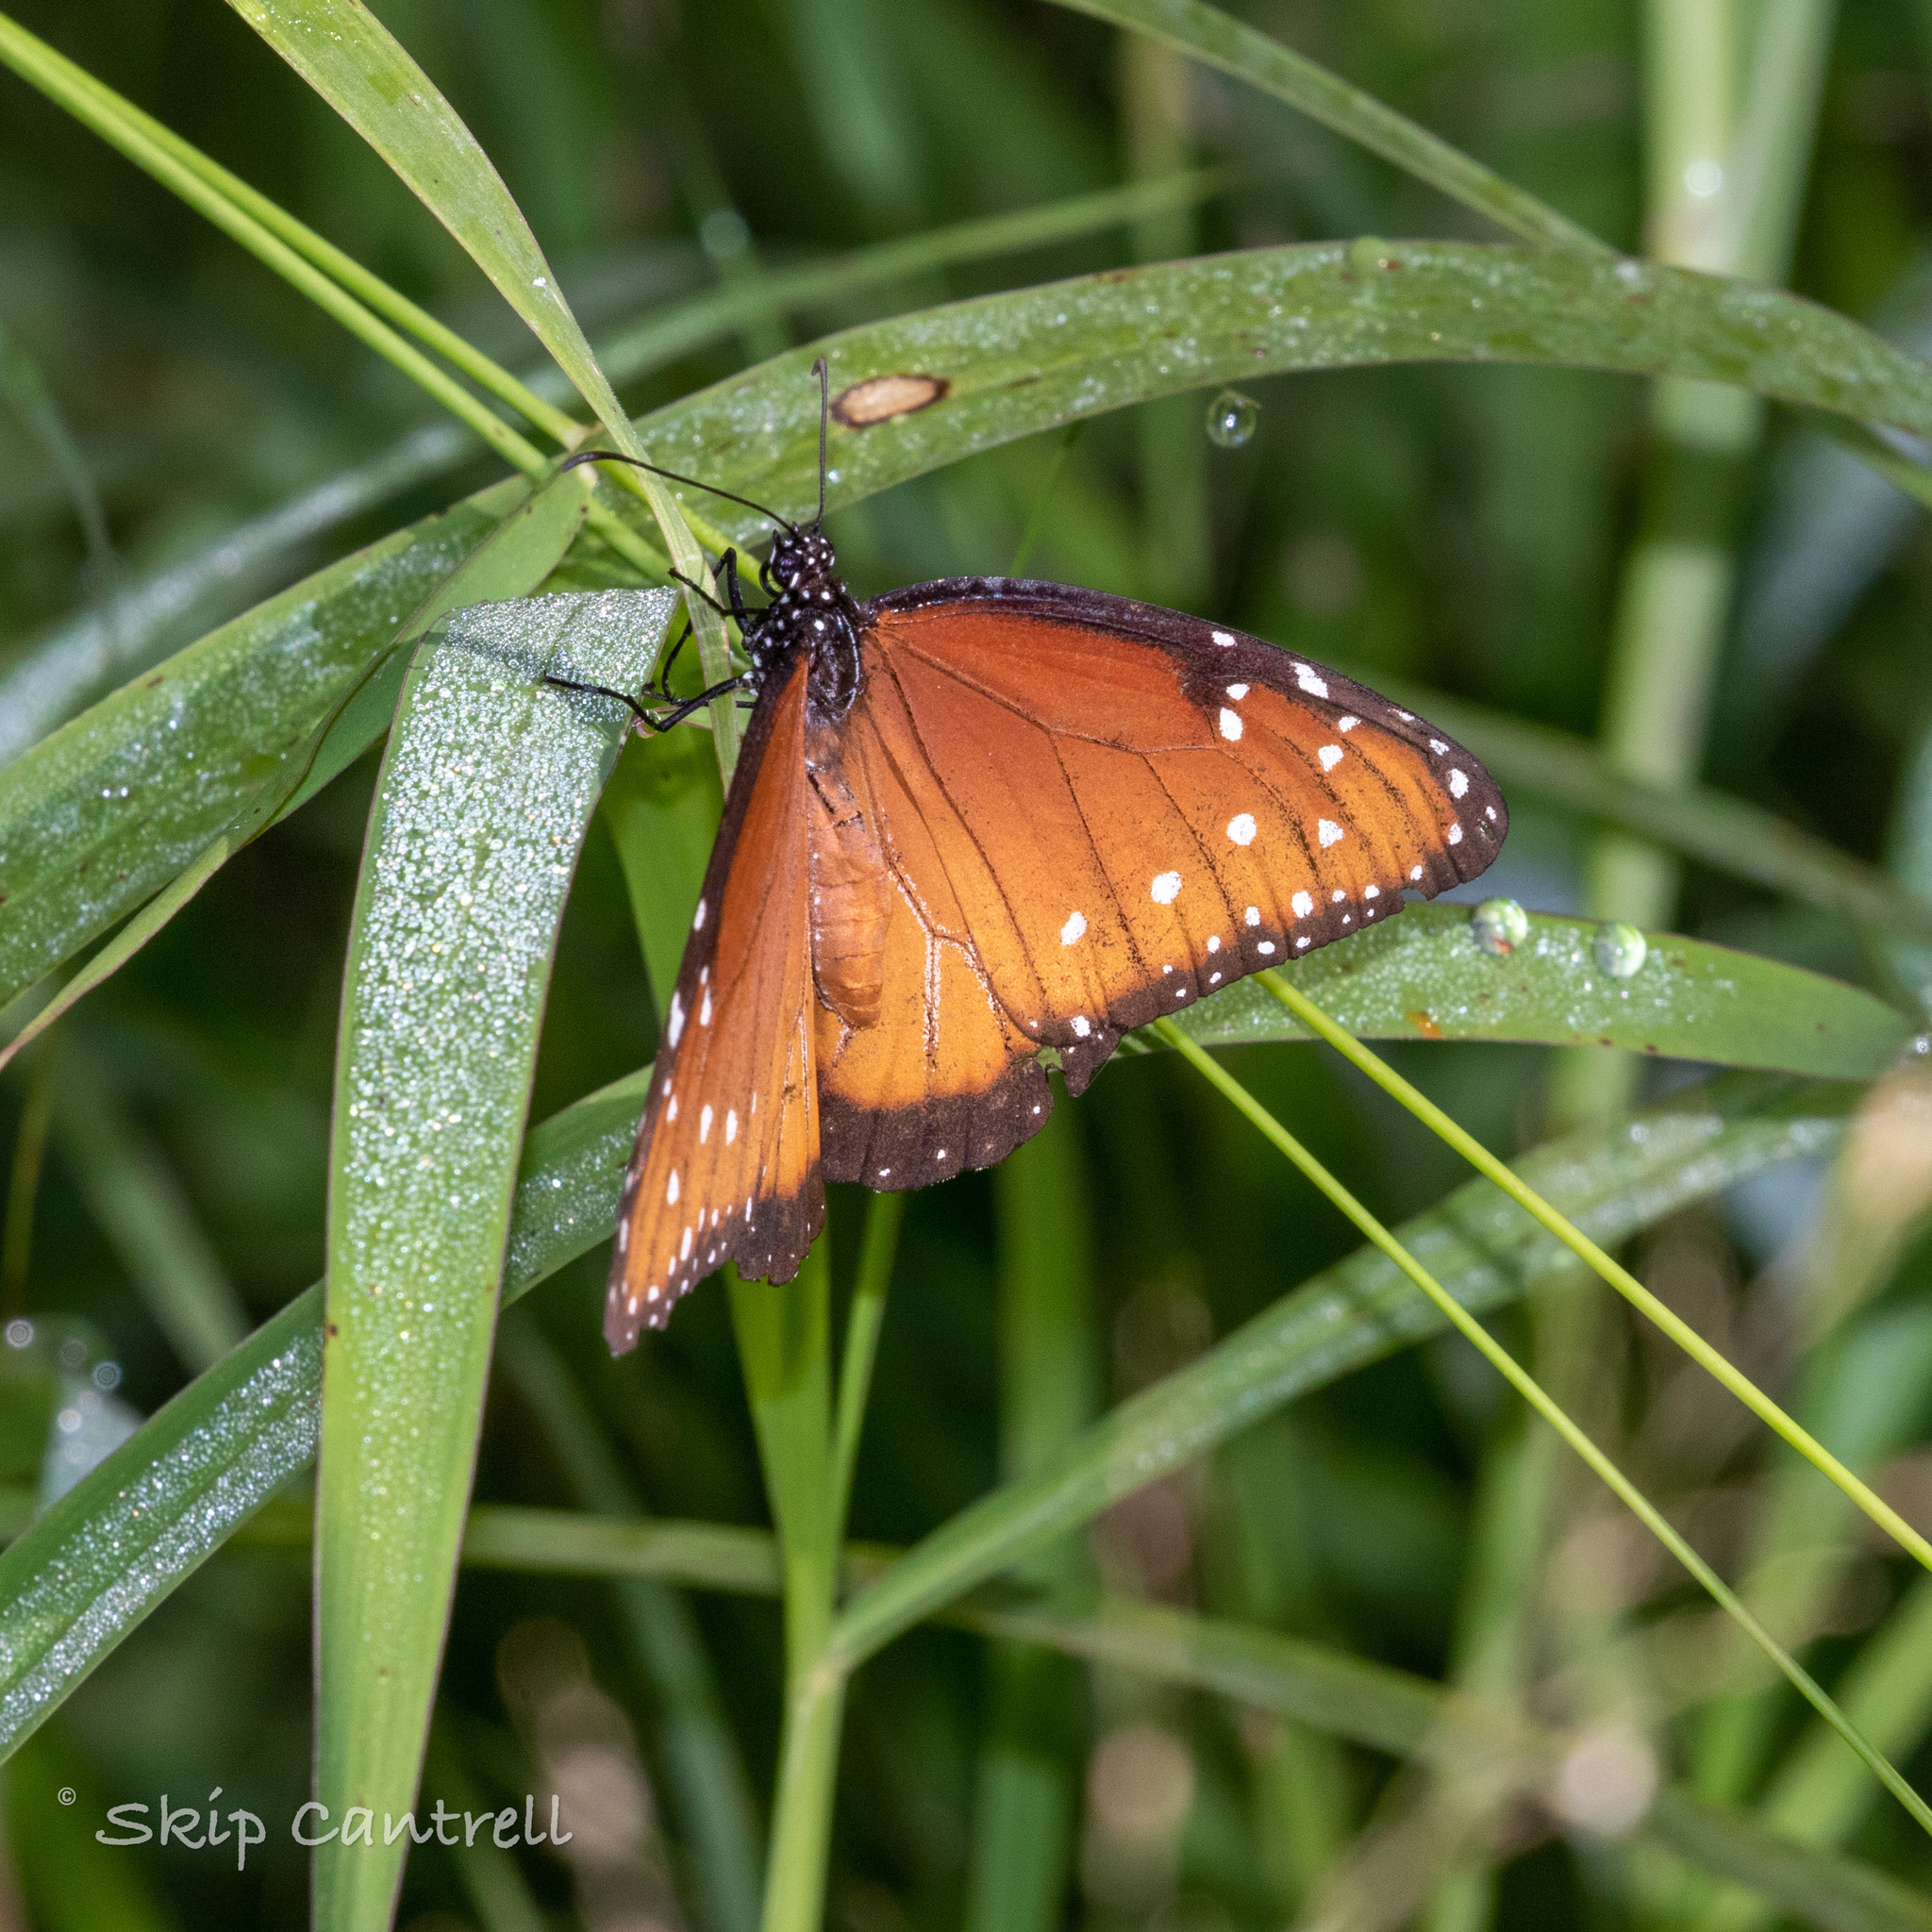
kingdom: Animalia
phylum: Arthropoda
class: Insecta
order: Lepidoptera
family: Nymphalidae
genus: Danaus
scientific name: Danaus gilippus
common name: Queen
